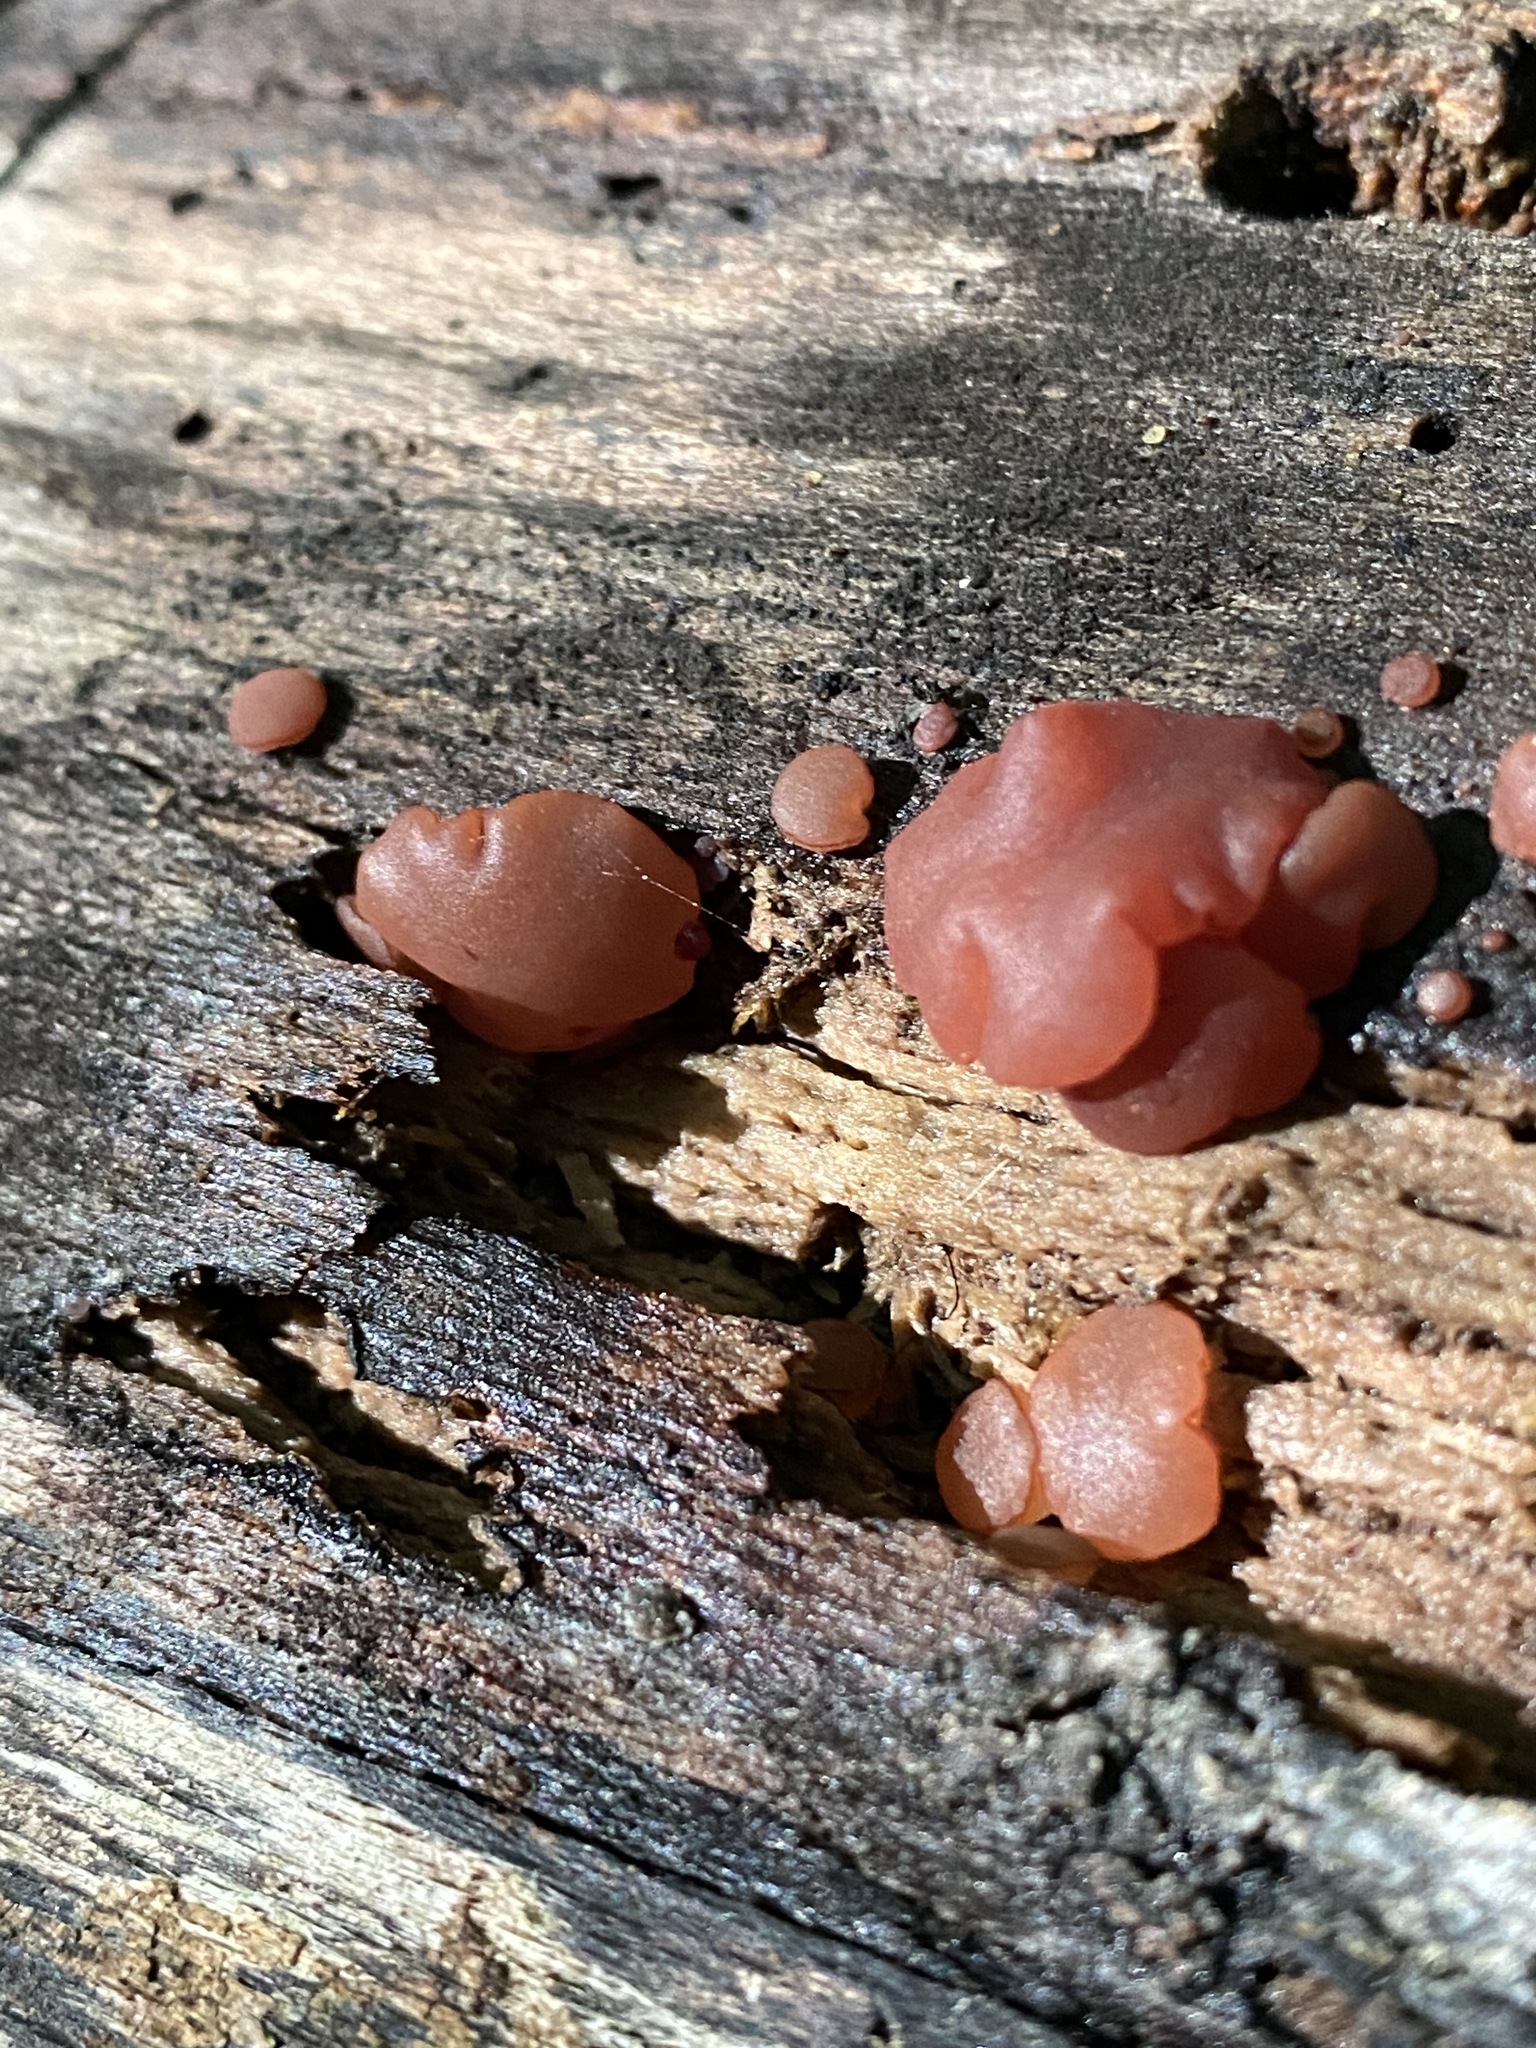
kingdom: Fungi
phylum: Ascomycota
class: Leotiomycetes
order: Helotiales
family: Gelatinodiscaceae
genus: Ascocoryne
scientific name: Ascocoryne sarcoides
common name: Purple jellydisc
